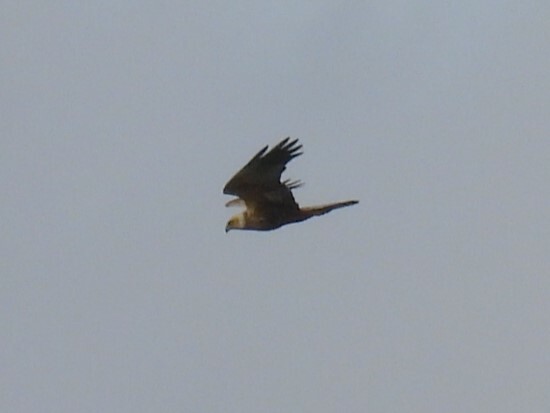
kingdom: Animalia
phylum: Chordata
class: Aves
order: Accipitriformes
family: Accipitridae
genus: Circus
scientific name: Circus aeruginosus
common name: Western marsh harrier
